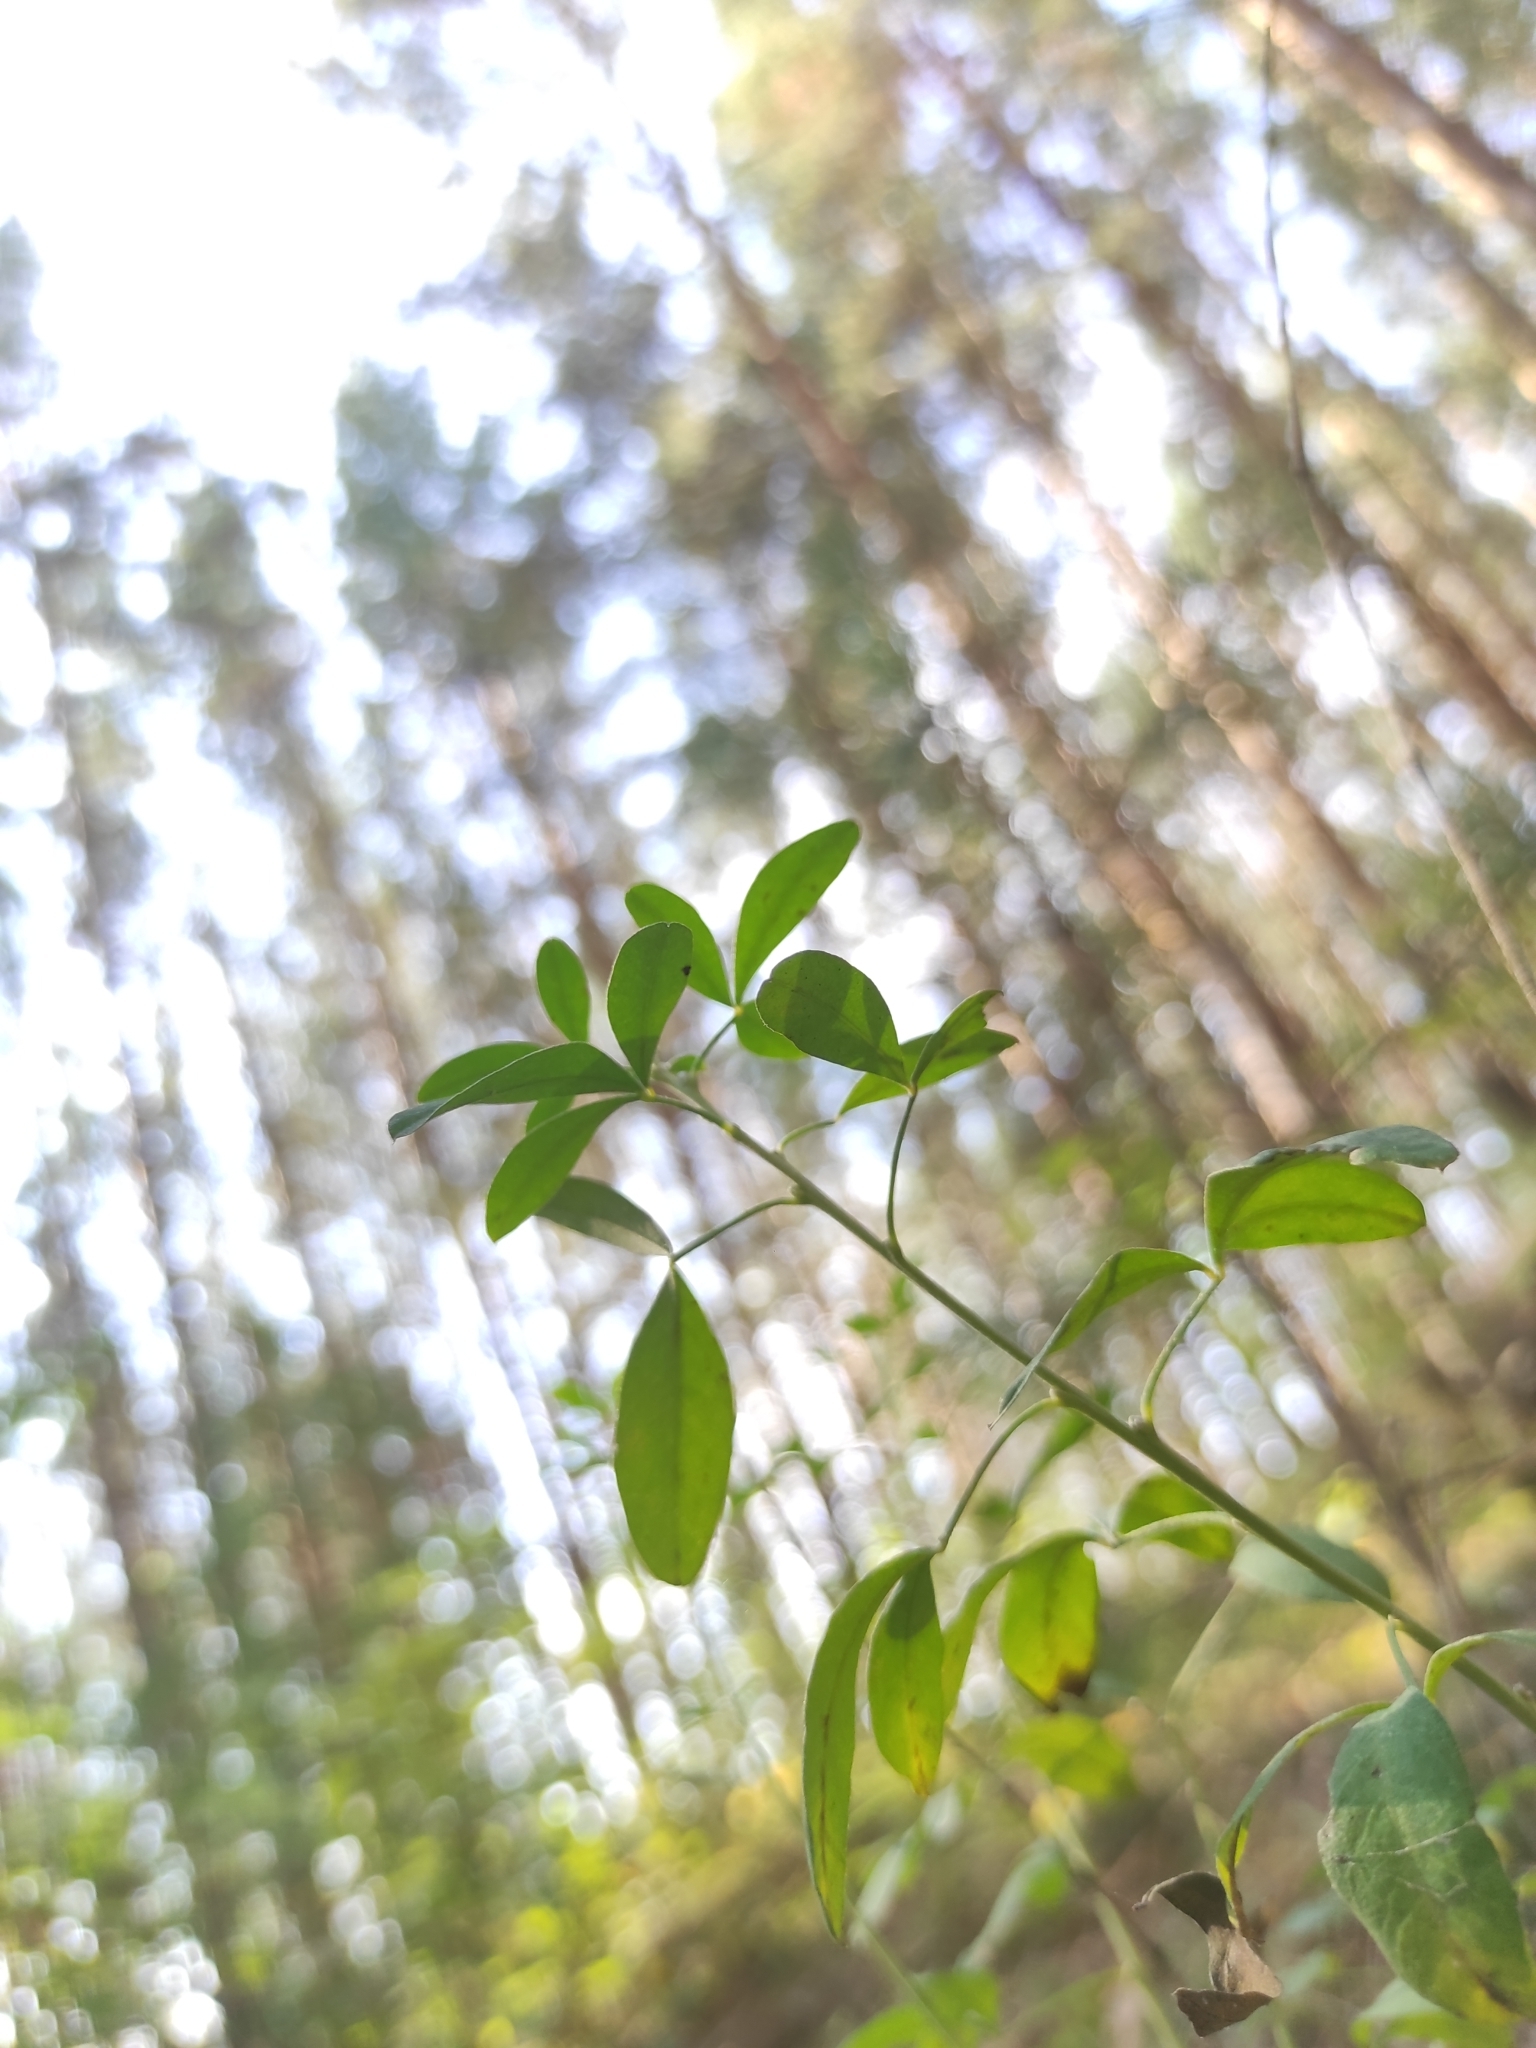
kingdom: Plantae
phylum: Tracheophyta
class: Magnoliopsida
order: Fabales
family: Fabaceae
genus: Chamaecytisus
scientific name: Chamaecytisus ruthenicus
